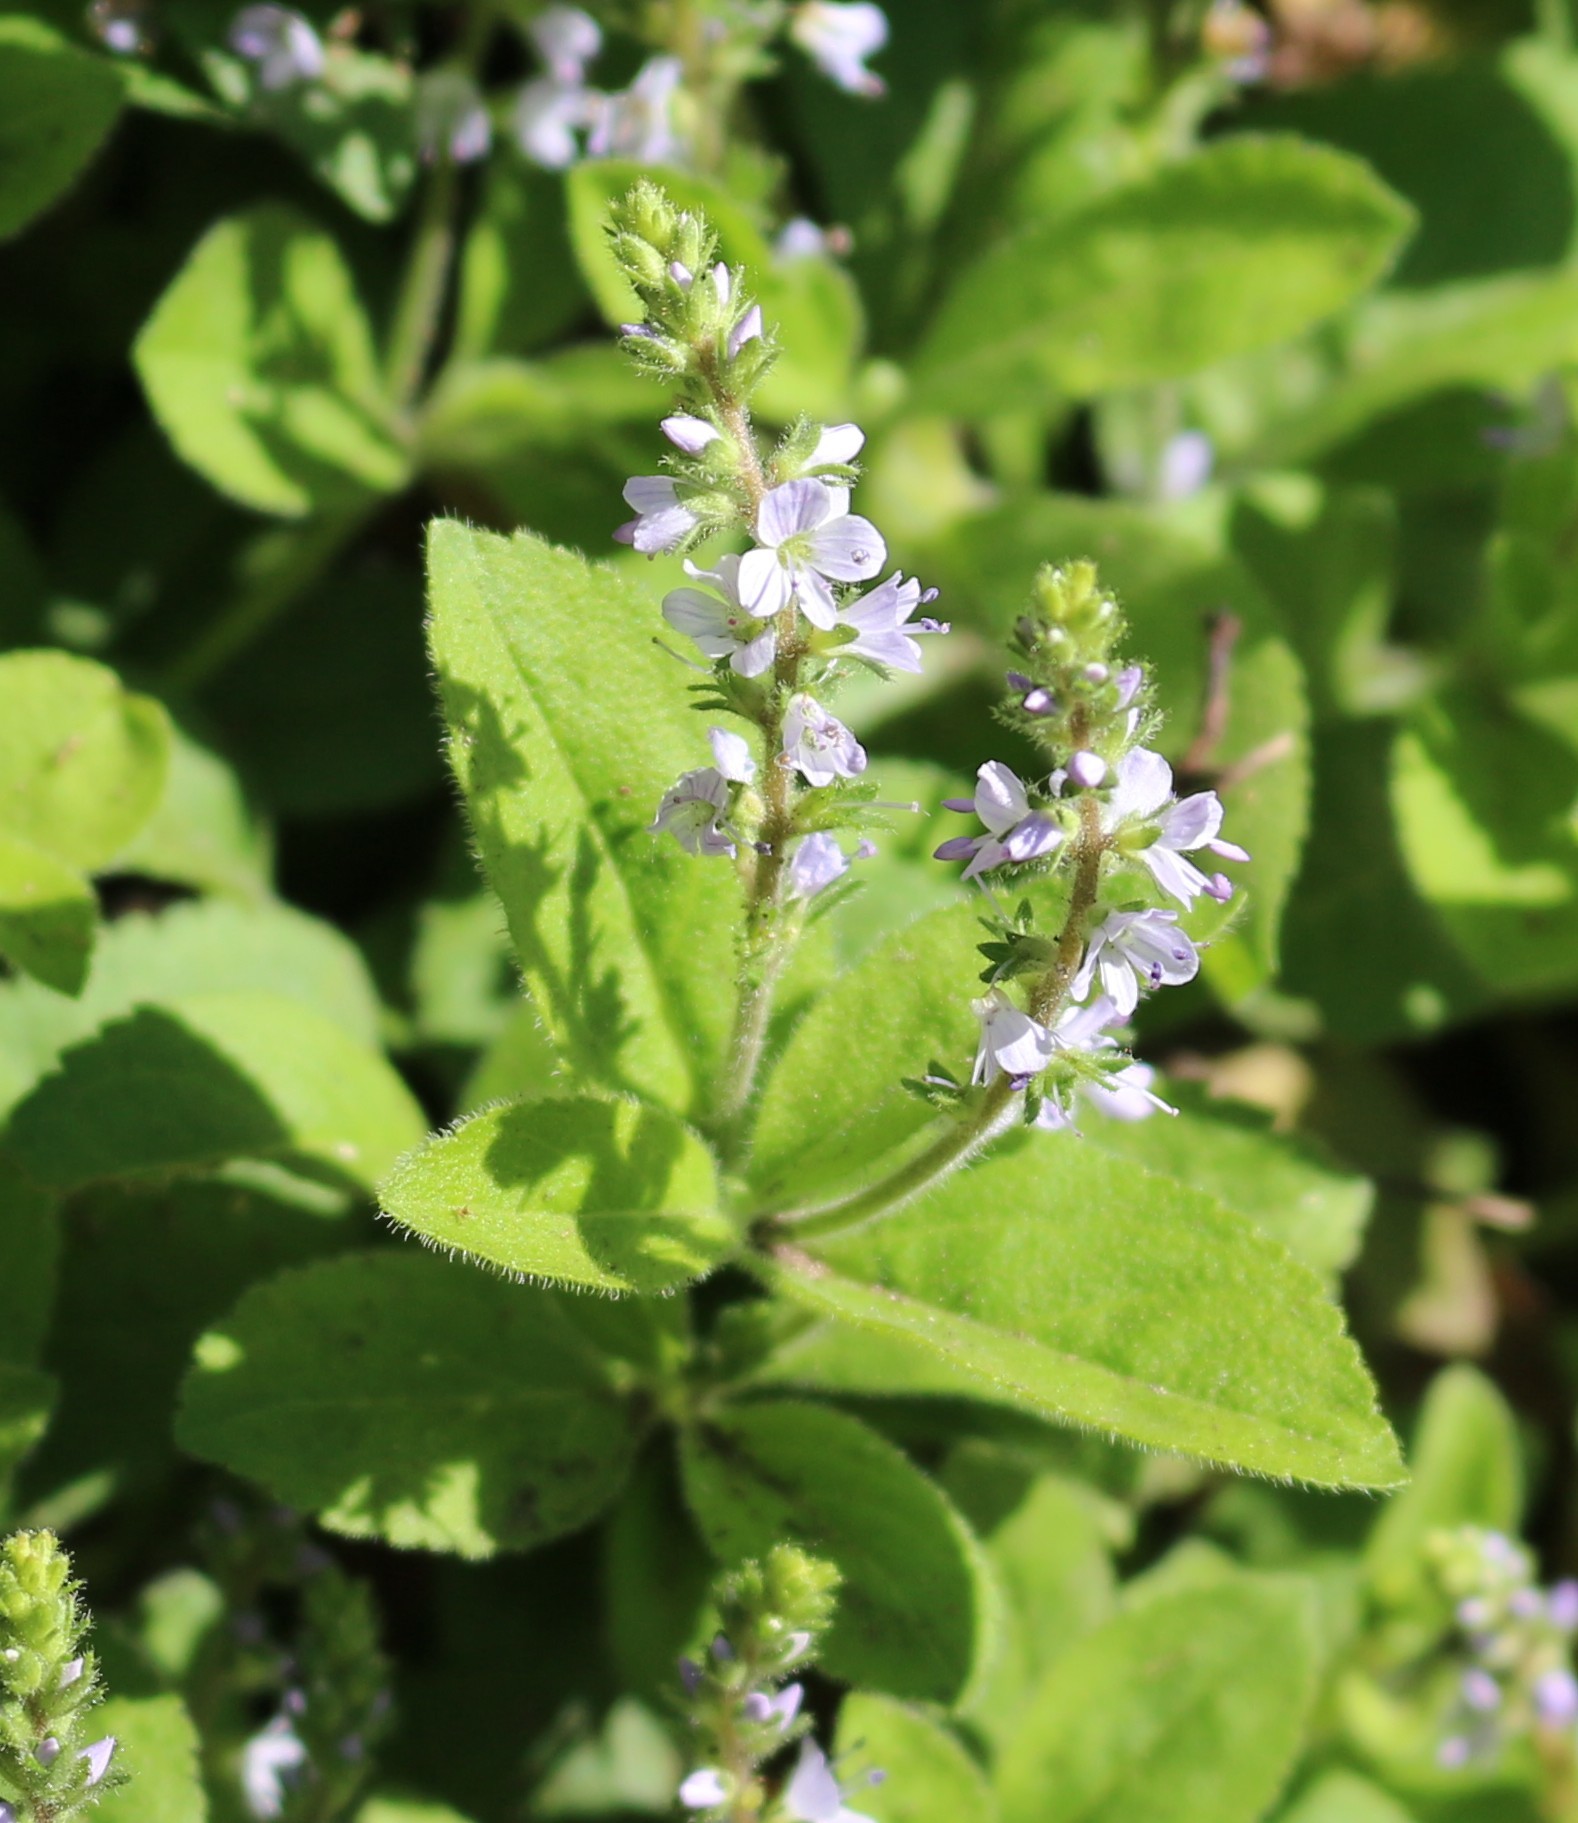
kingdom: Plantae
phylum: Tracheophyta
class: Magnoliopsida
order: Lamiales
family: Plantaginaceae
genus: Veronica
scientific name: Veronica officinalis
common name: Common speedwell
